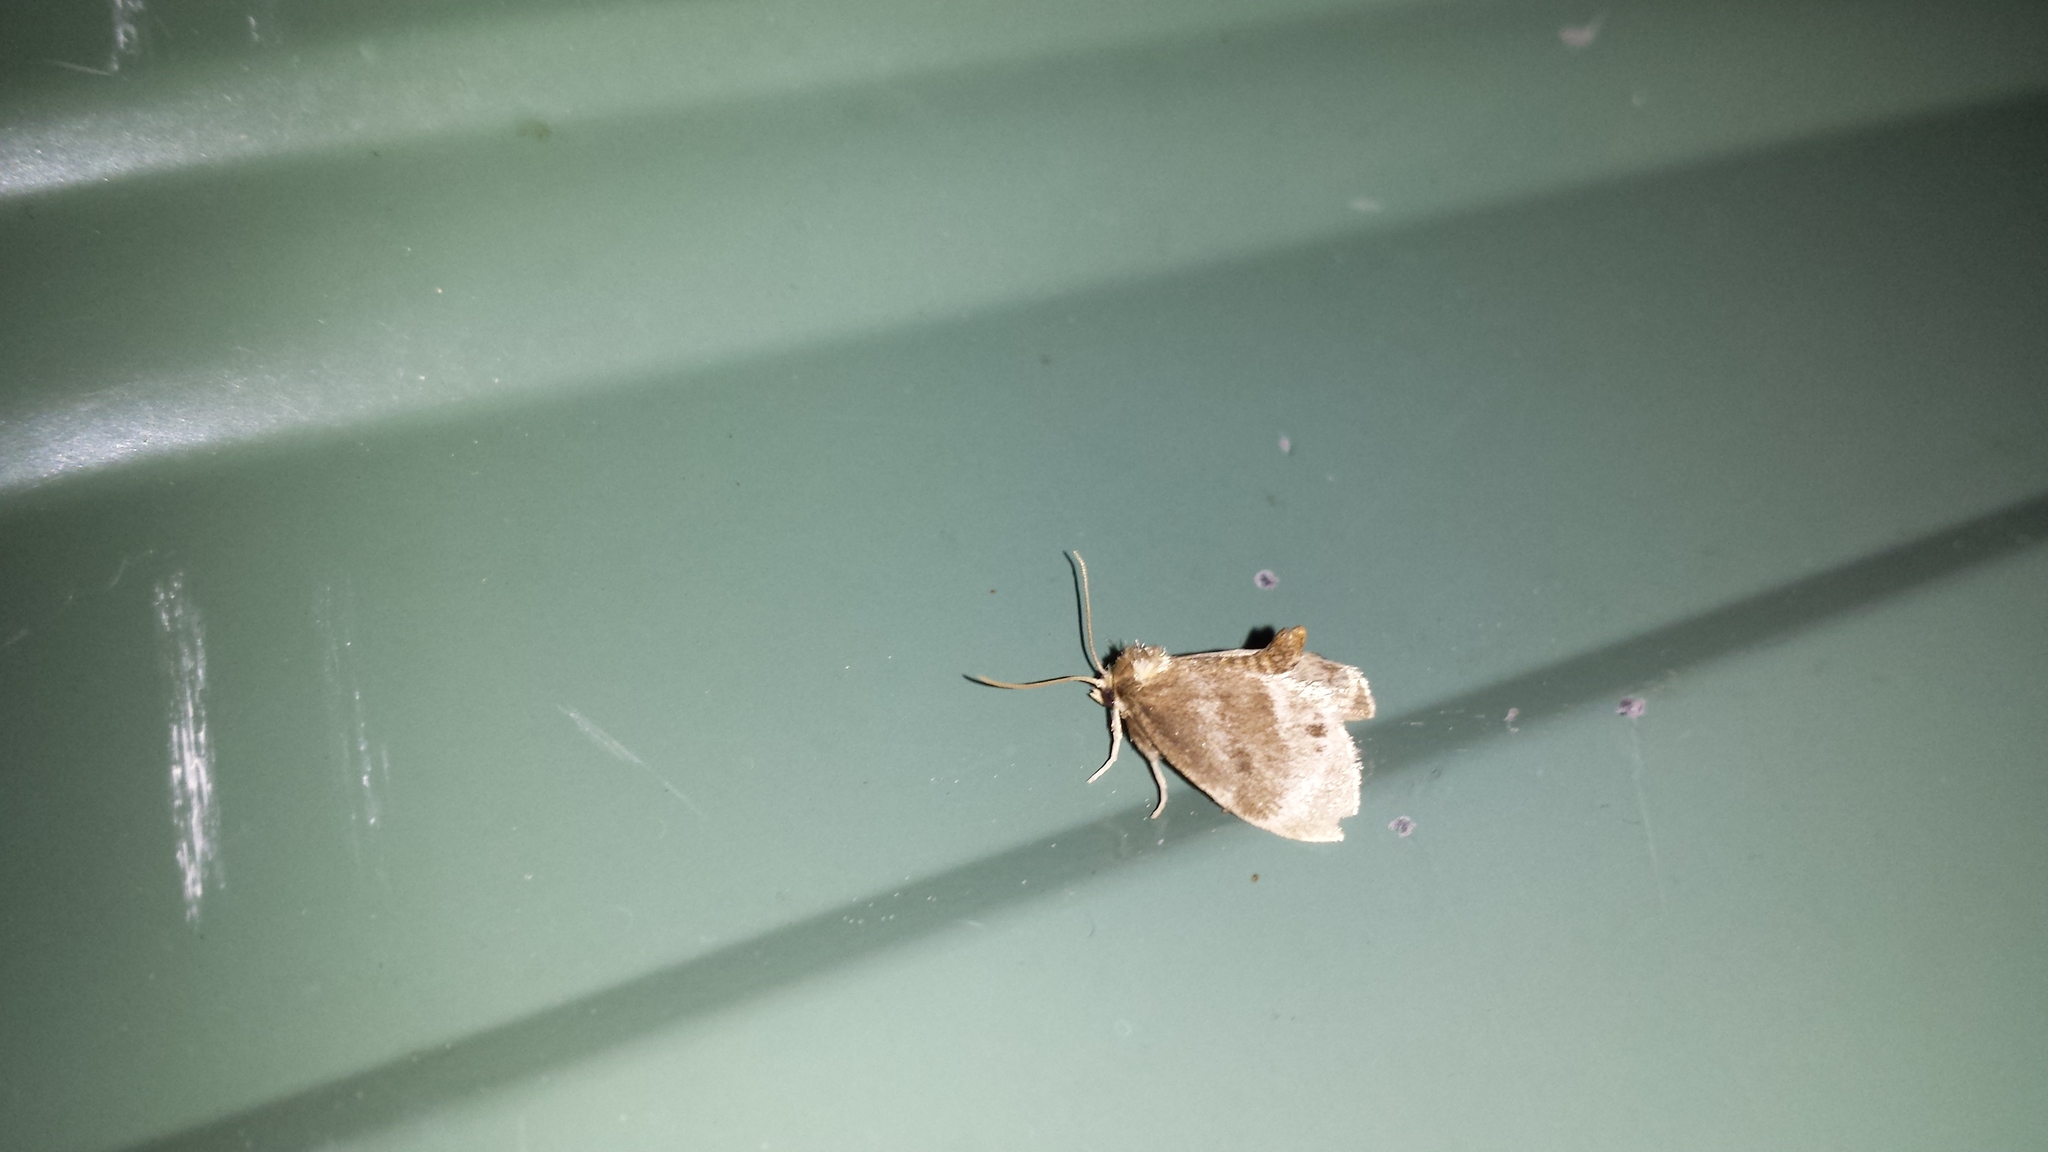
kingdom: Animalia
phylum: Arthropoda
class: Insecta
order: Lepidoptera
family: Limacodidae
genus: Packardia
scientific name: Packardia elegans
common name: Elegant tailed slug moth
